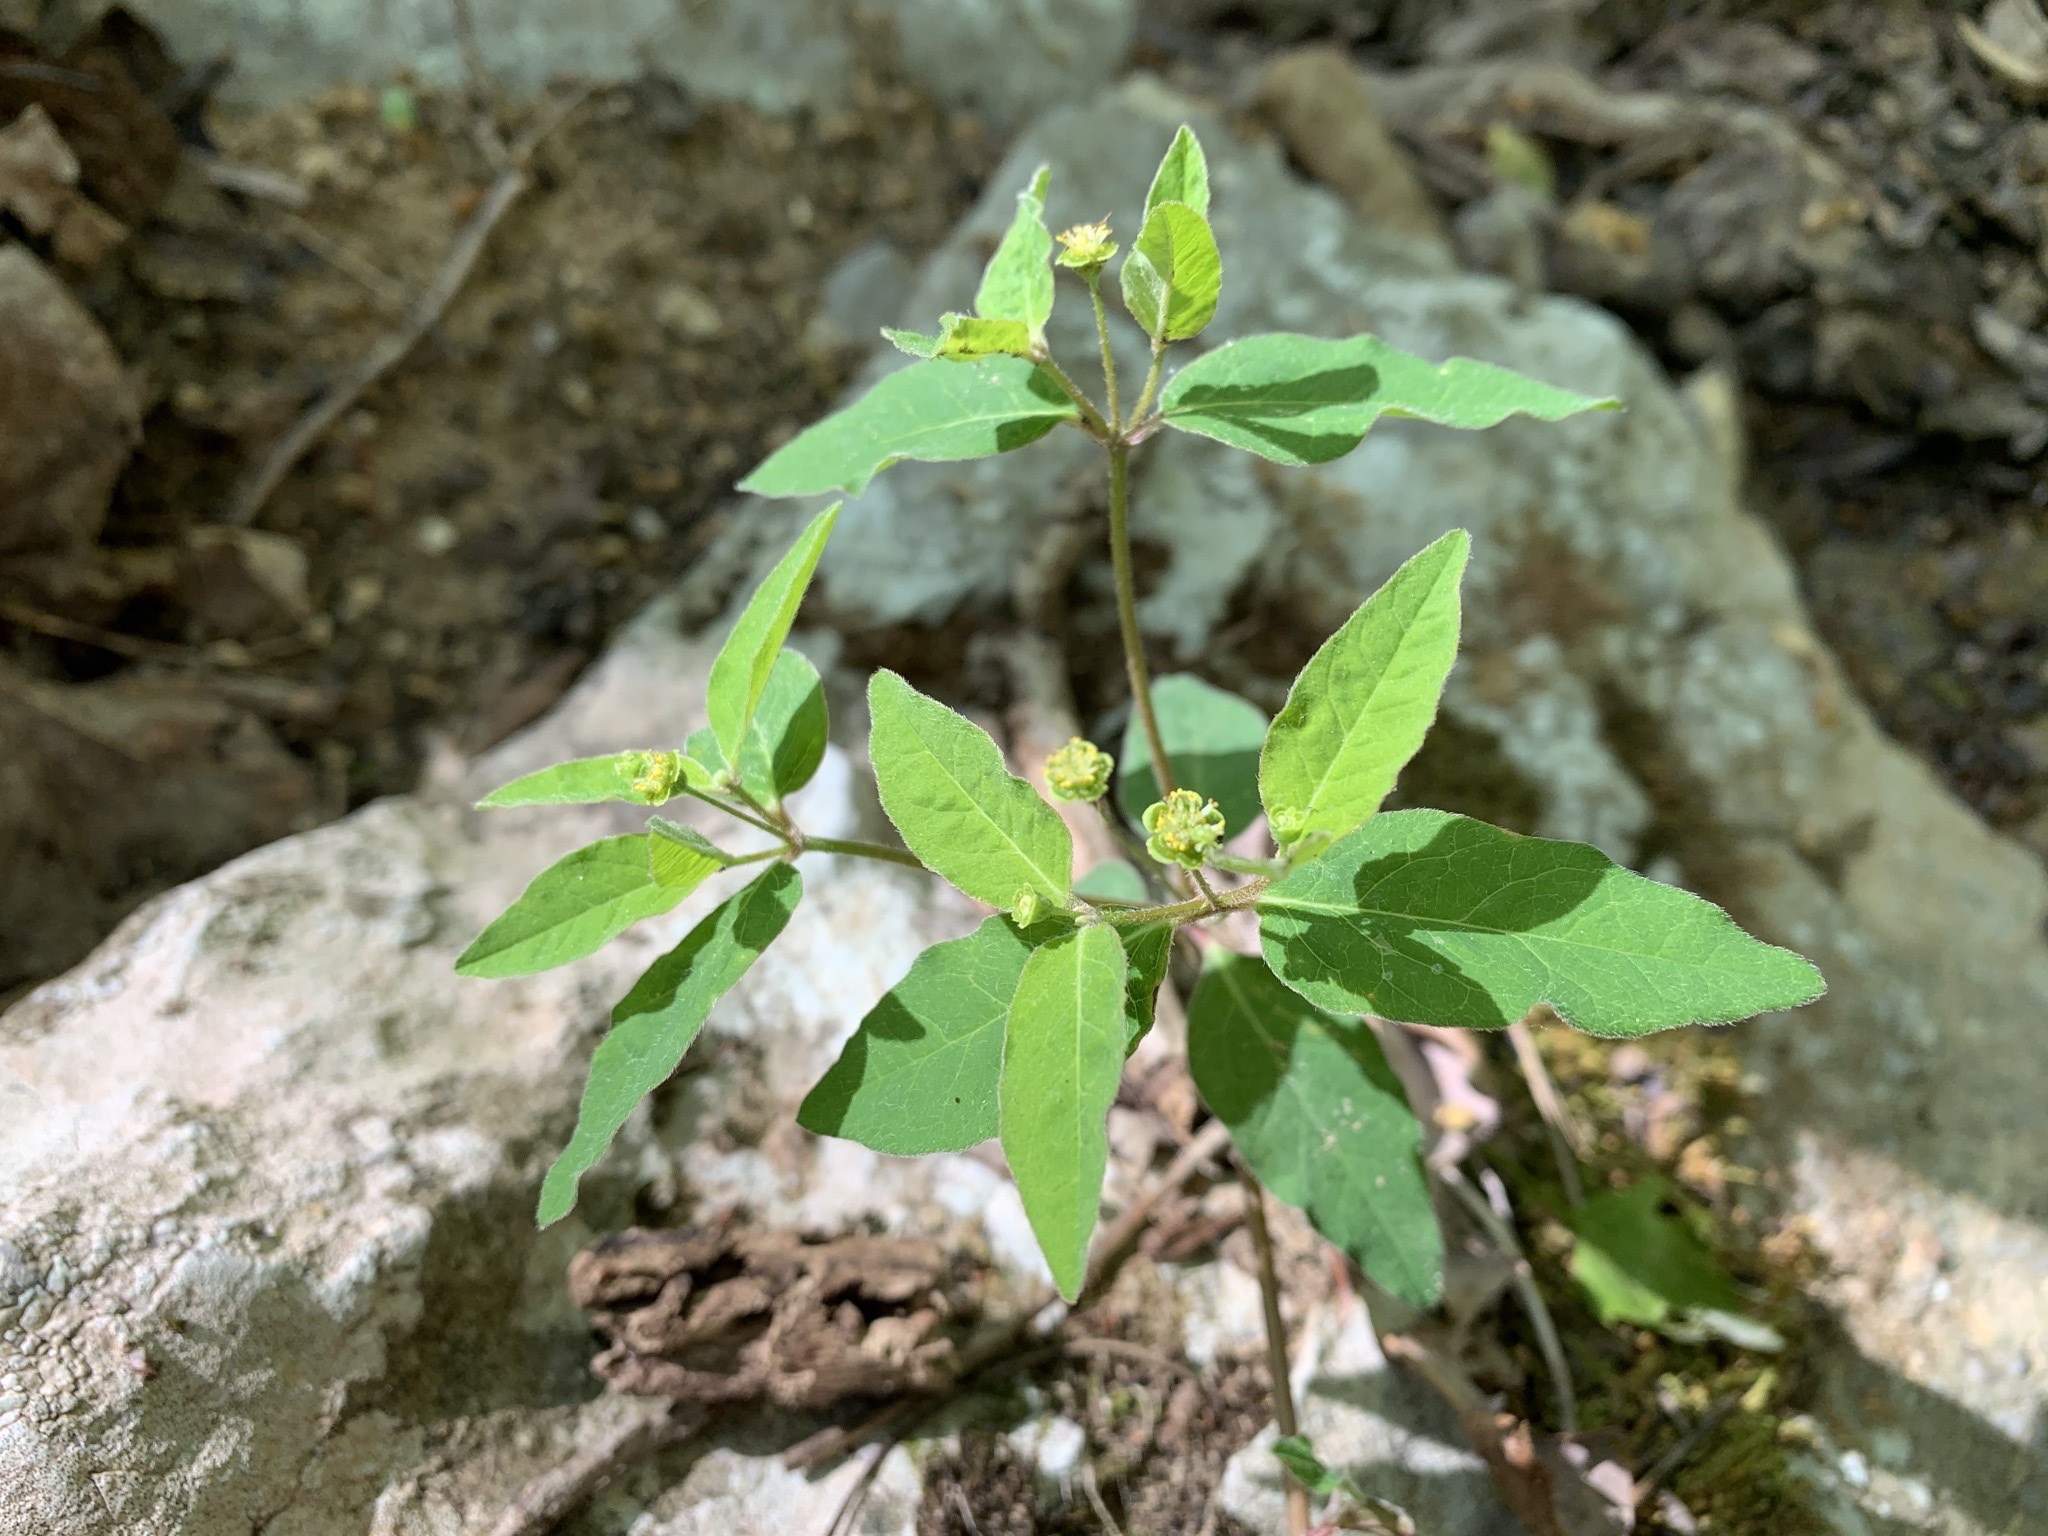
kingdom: Plantae
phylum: Tracheophyta
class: Magnoliopsida
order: Malpighiales
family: Euphorbiaceae
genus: Euphorbia
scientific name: Euphorbia mercurialina
